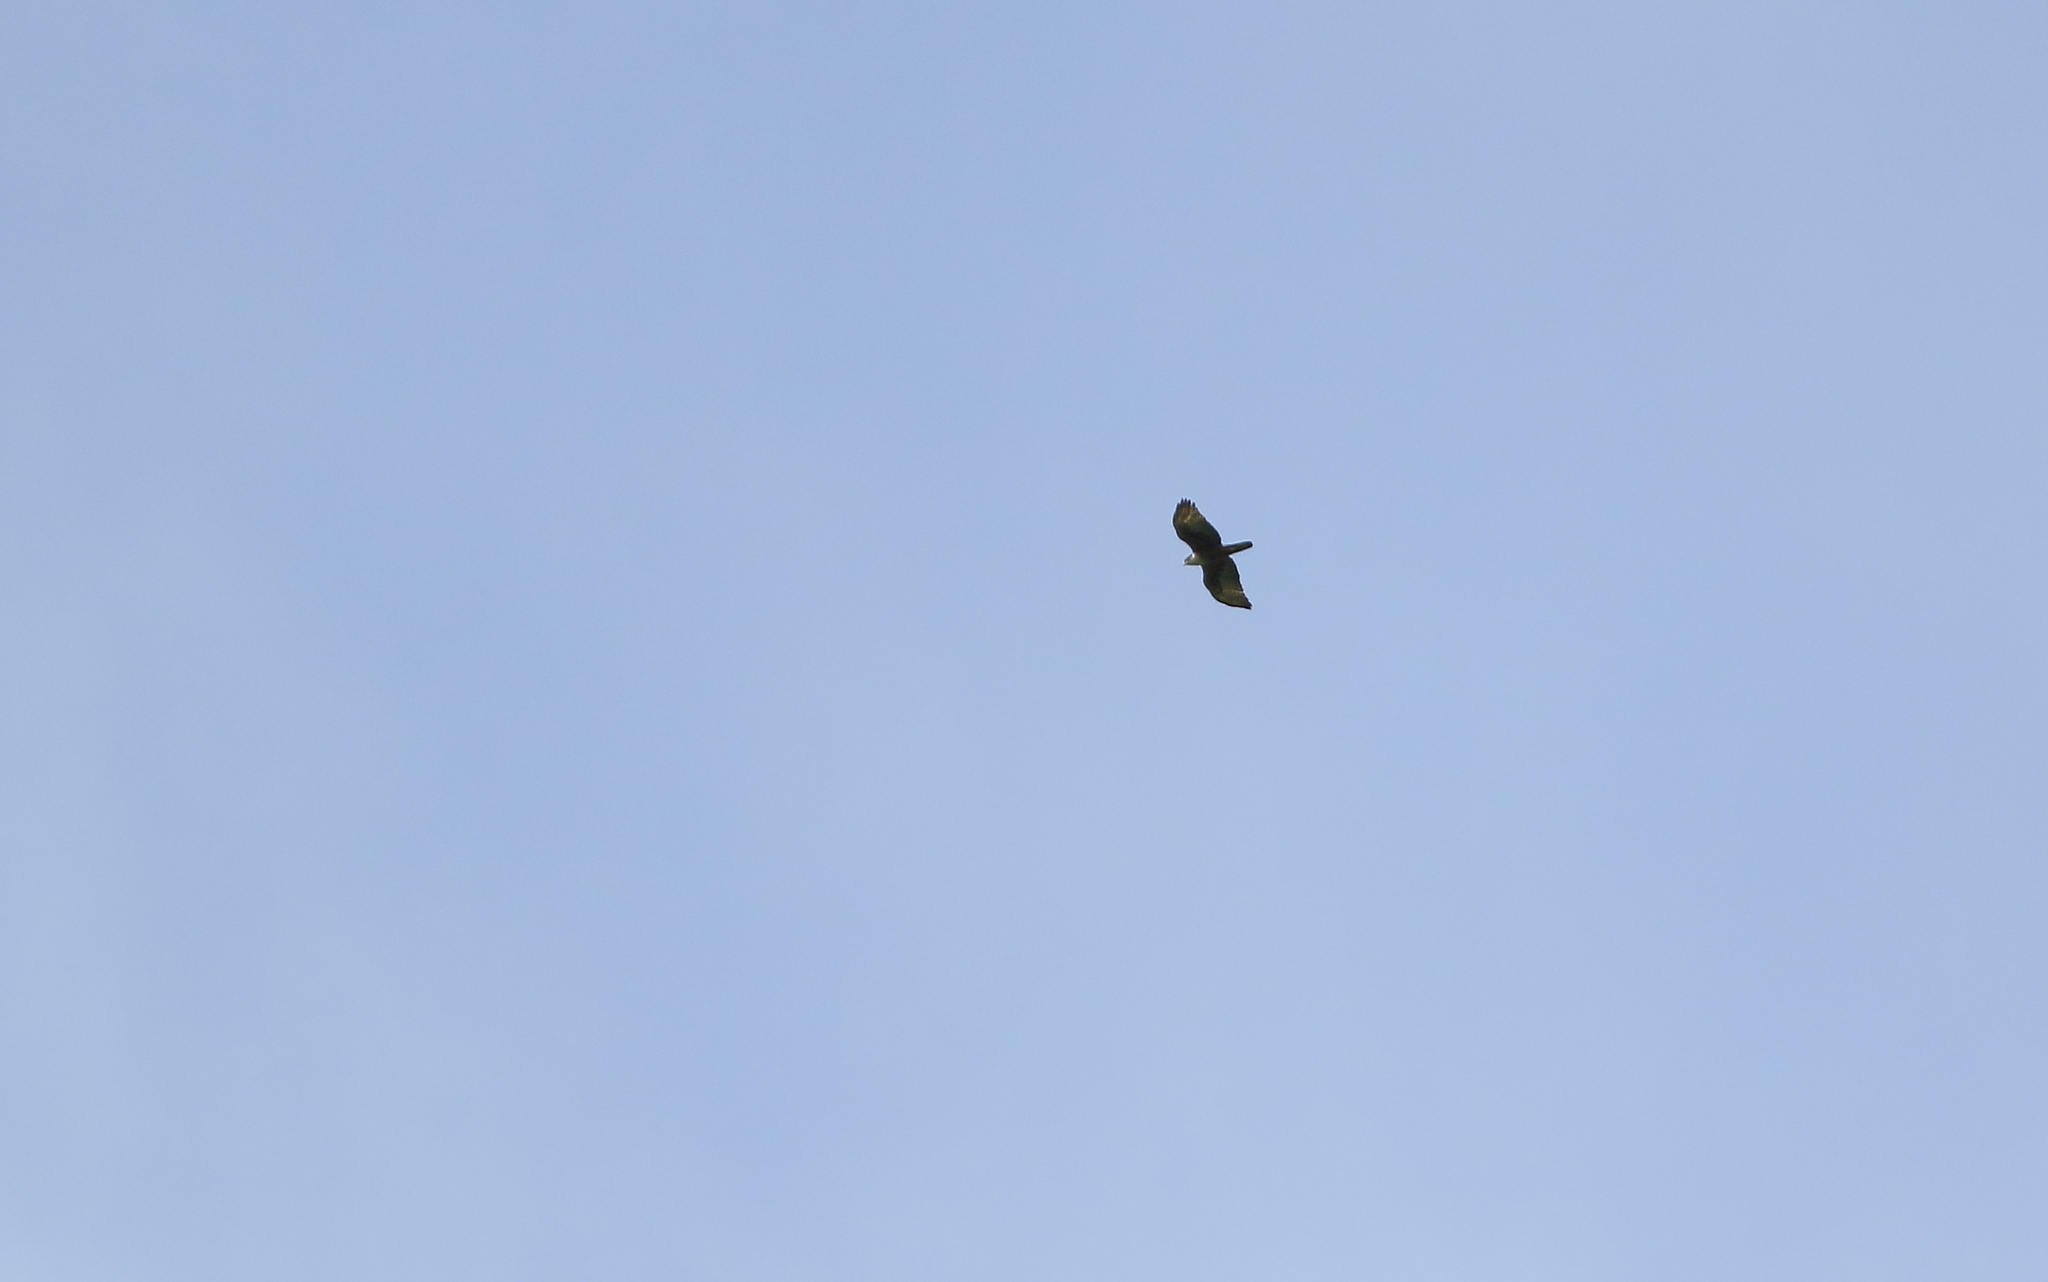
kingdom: Animalia
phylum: Chordata
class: Aves
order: Accipitriformes
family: Accipitridae
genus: Lophotriorchis
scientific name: Lophotriorchis kienerii
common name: Rufous-bellied eagle
